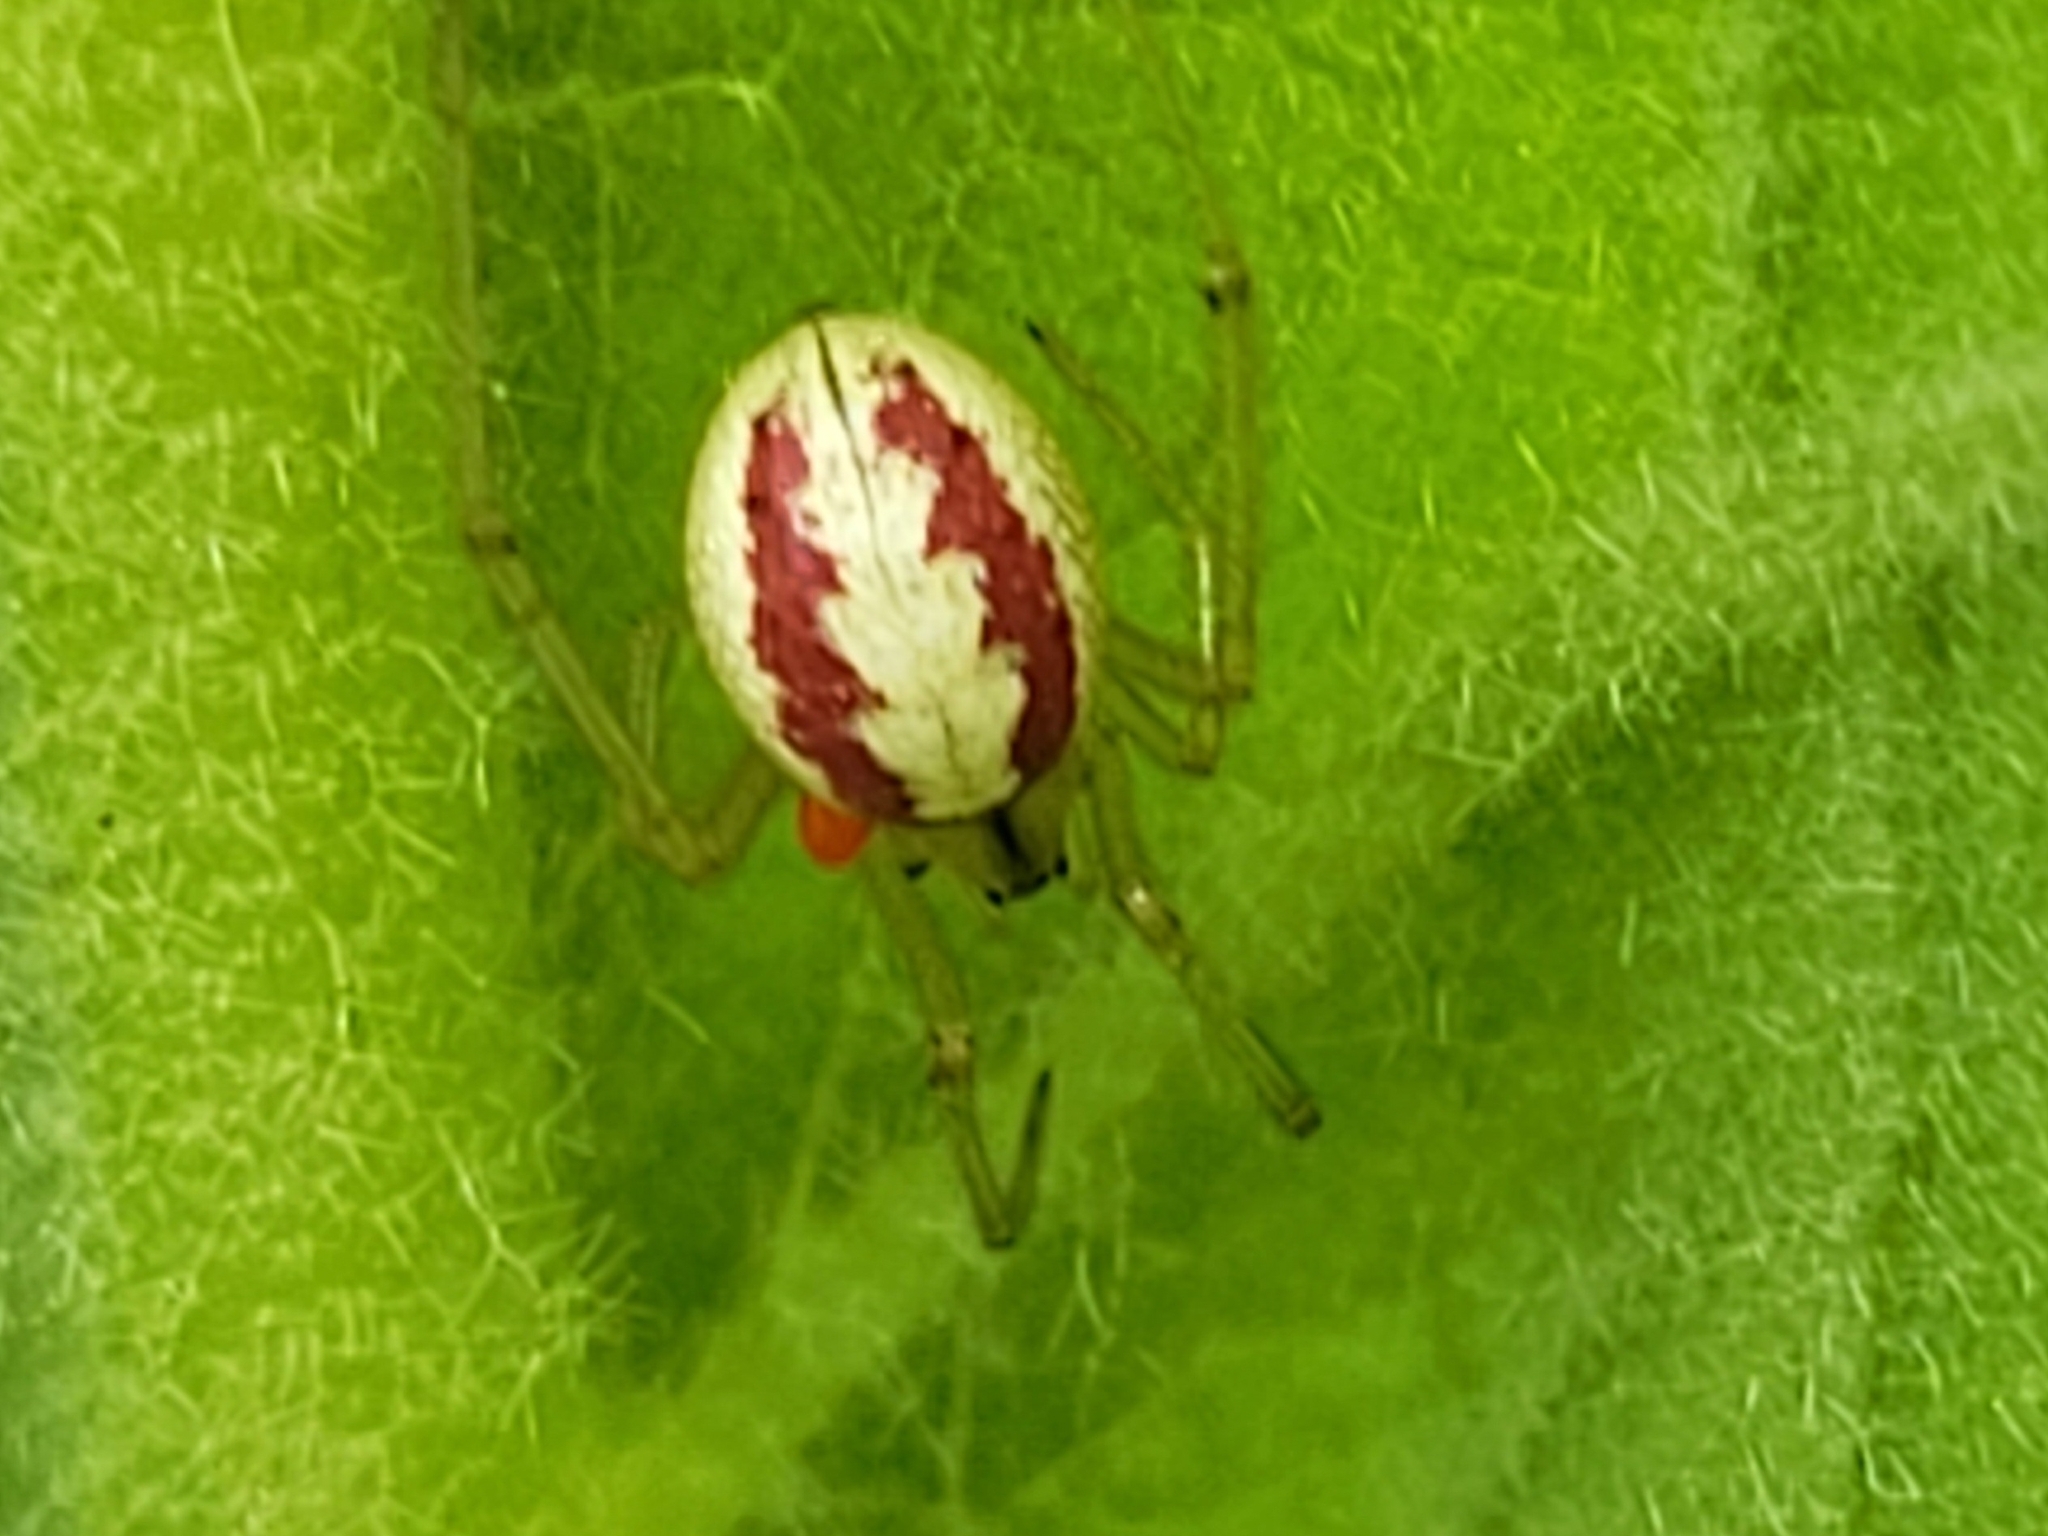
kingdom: Animalia
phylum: Arthropoda
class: Arachnida
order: Araneae
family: Theridiidae
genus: Enoplognatha
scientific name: Enoplognatha ovata
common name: Common candy-striped spider
